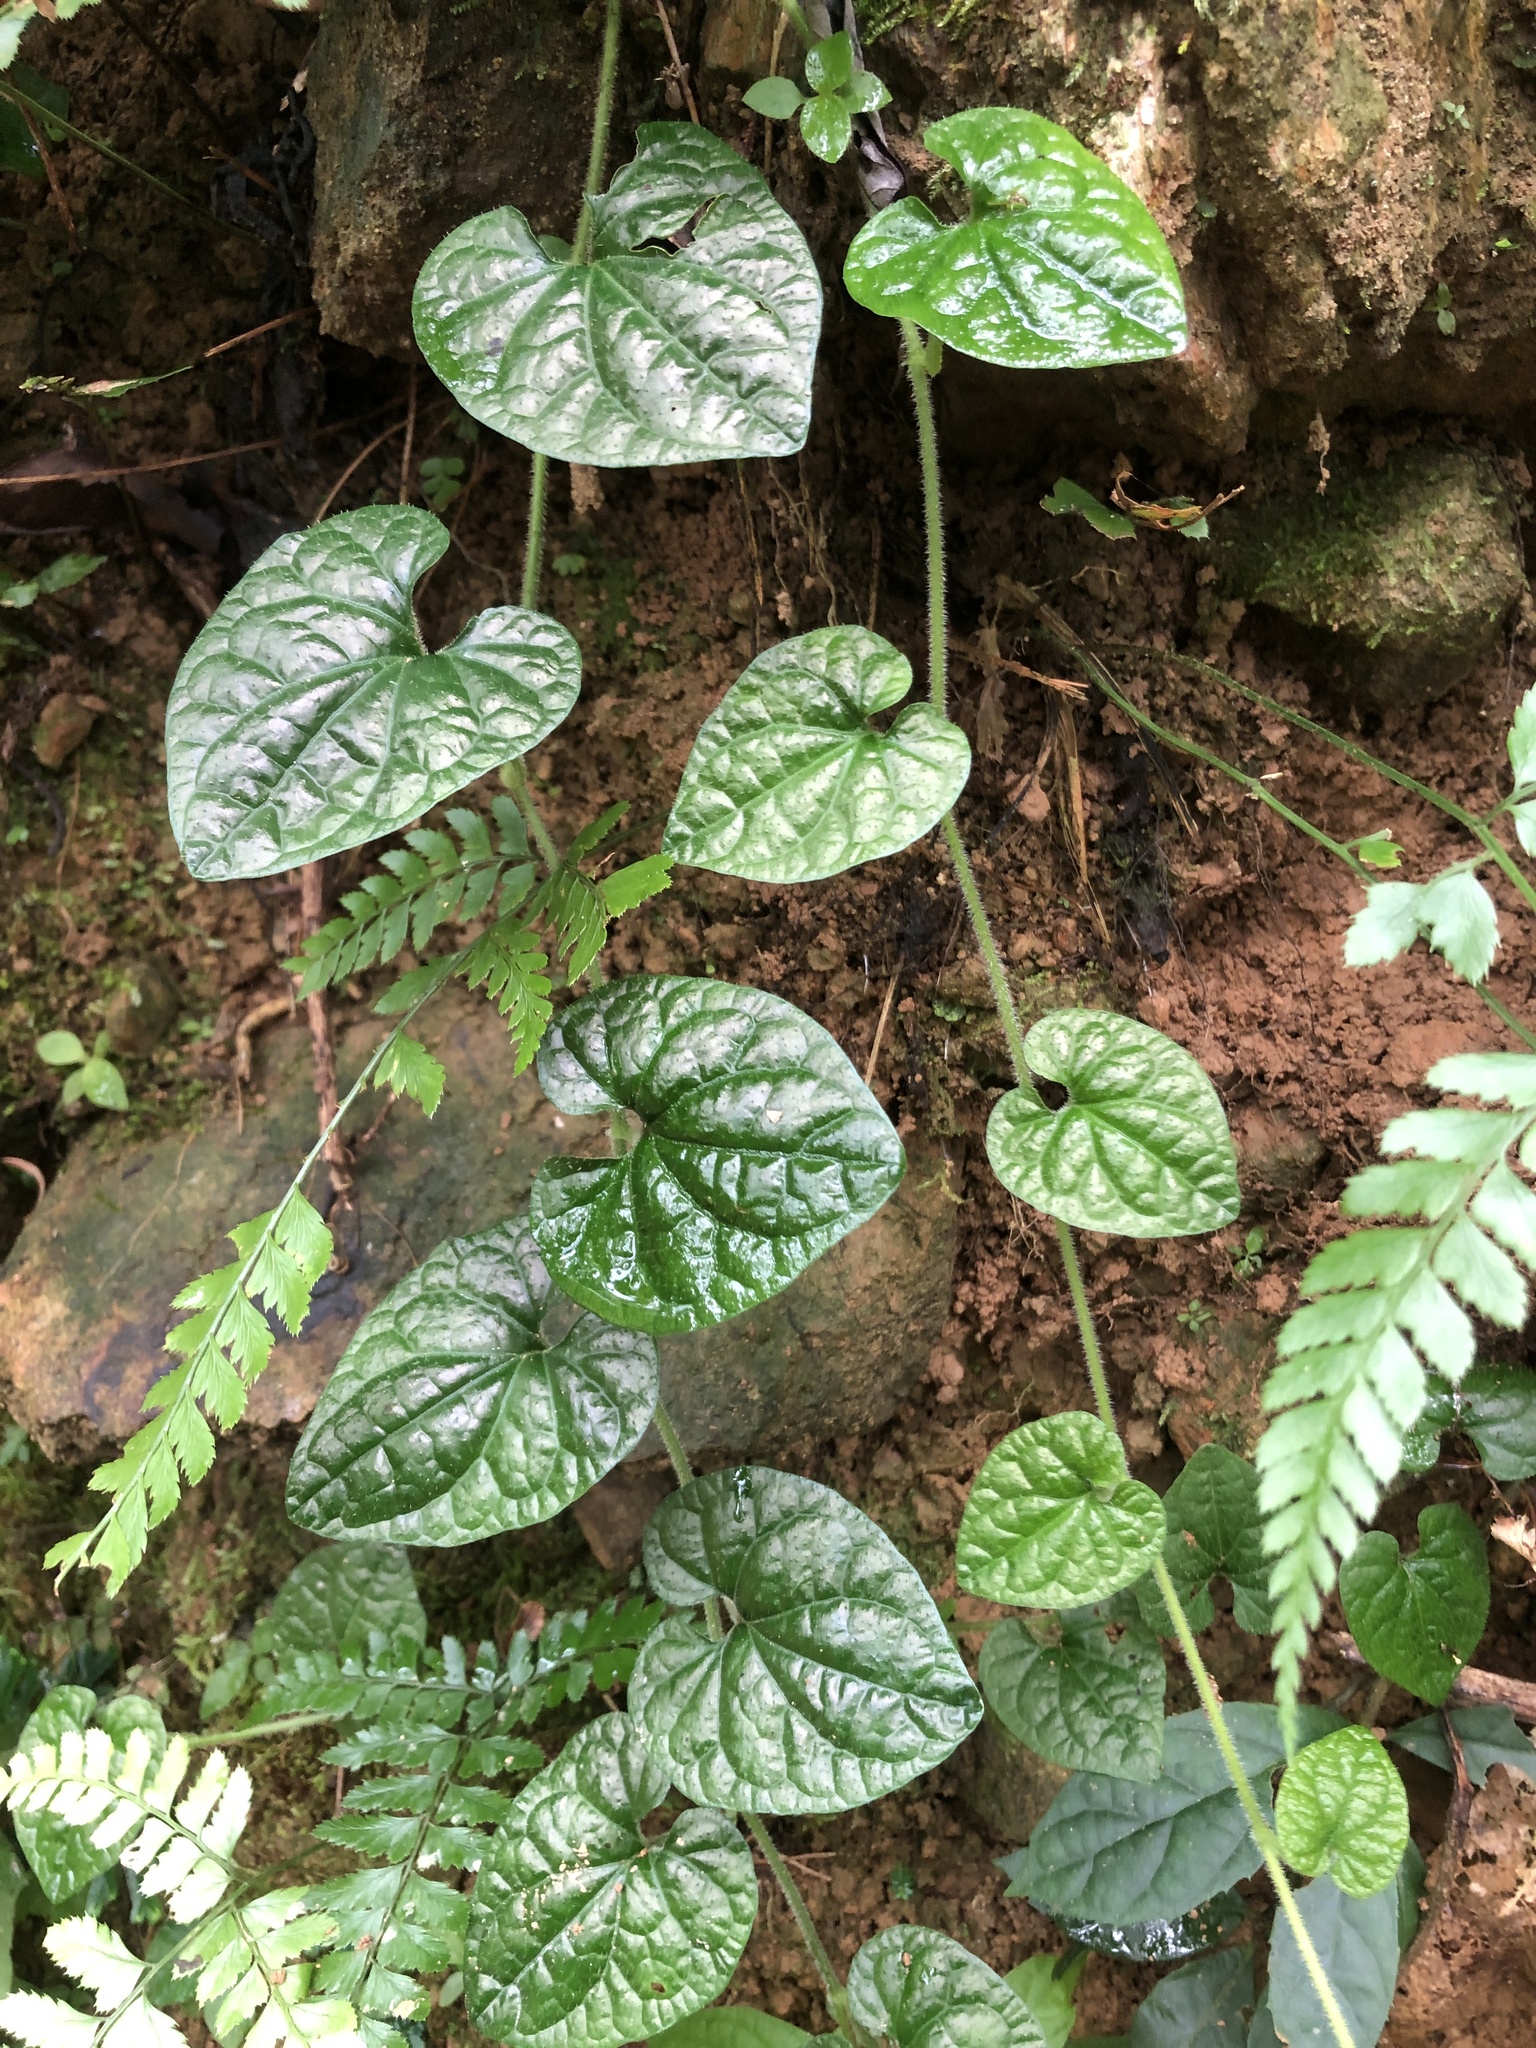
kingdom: Plantae
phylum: Tracheophyta
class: Magnoliopsida
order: Piperales
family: Piperaceae
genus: Piper
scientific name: Piper sintenense
